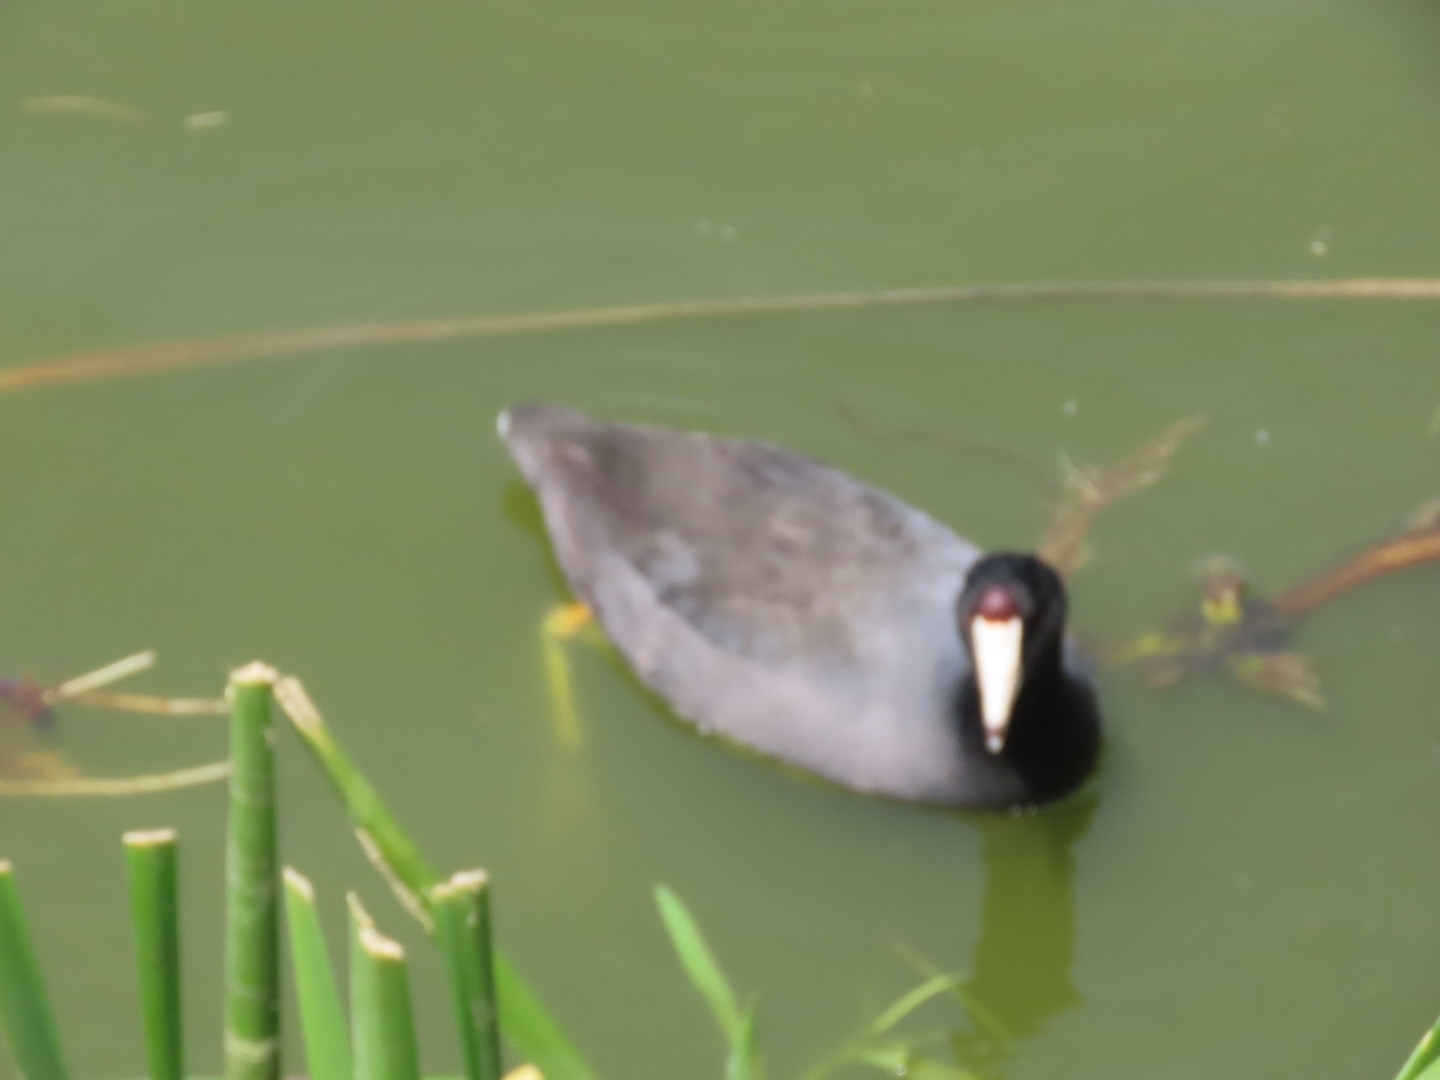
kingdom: Animalia
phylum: Chordata
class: Aves
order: Gruiformes
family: Rallidae
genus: Fulica
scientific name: Fulica americana
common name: American coot
